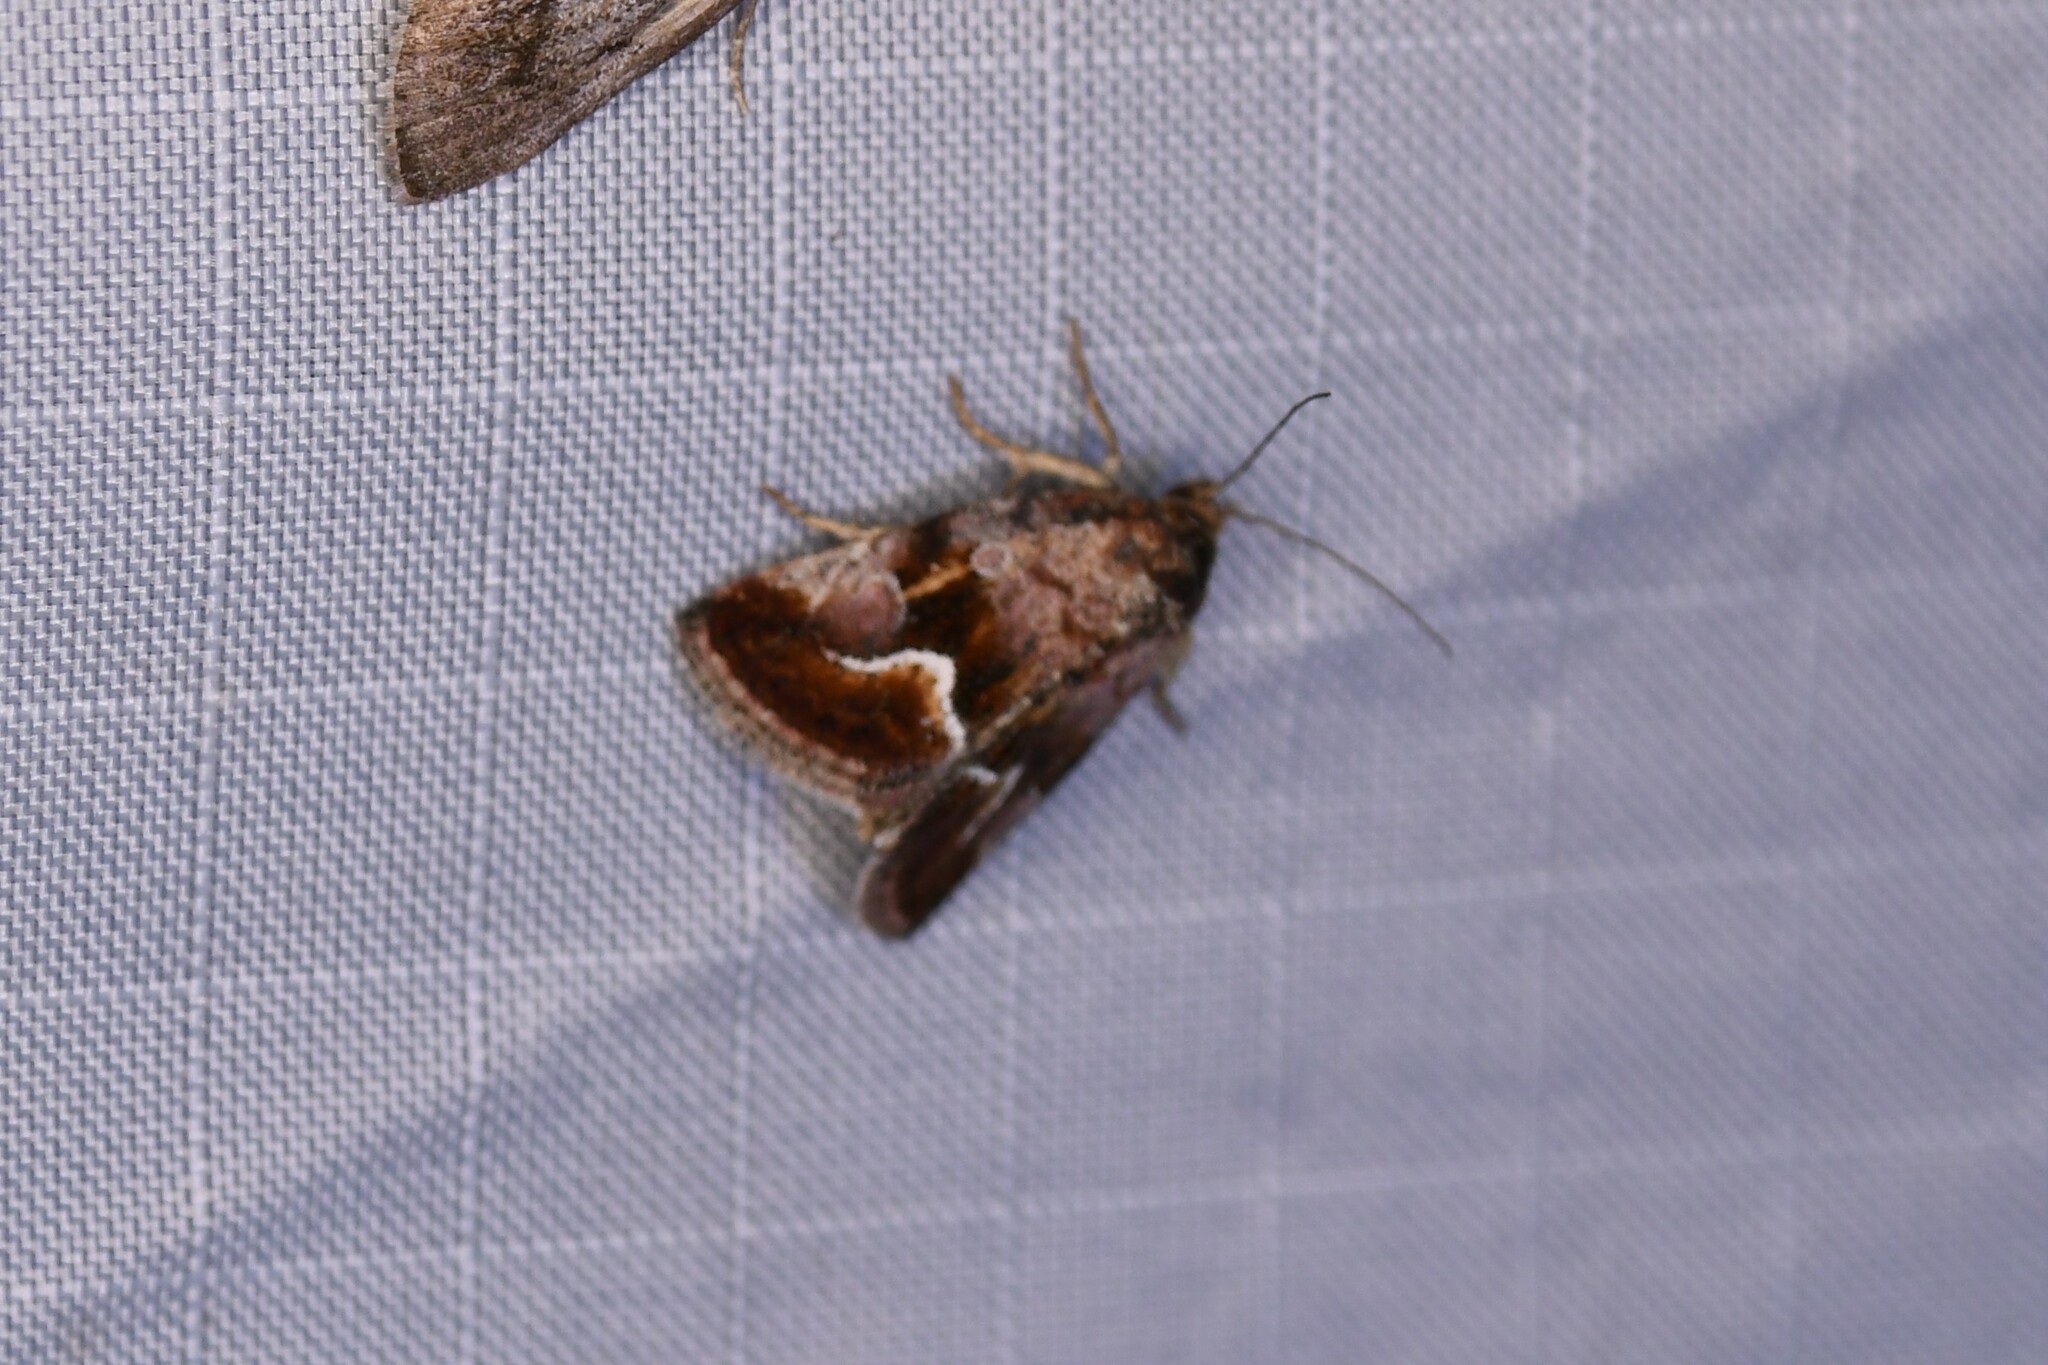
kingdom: Animalia
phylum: Arthropoda
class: Insecta
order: Lepidoptera
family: Noctuidae
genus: Deltote
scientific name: Deltote bellicula
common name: Bog glyph
